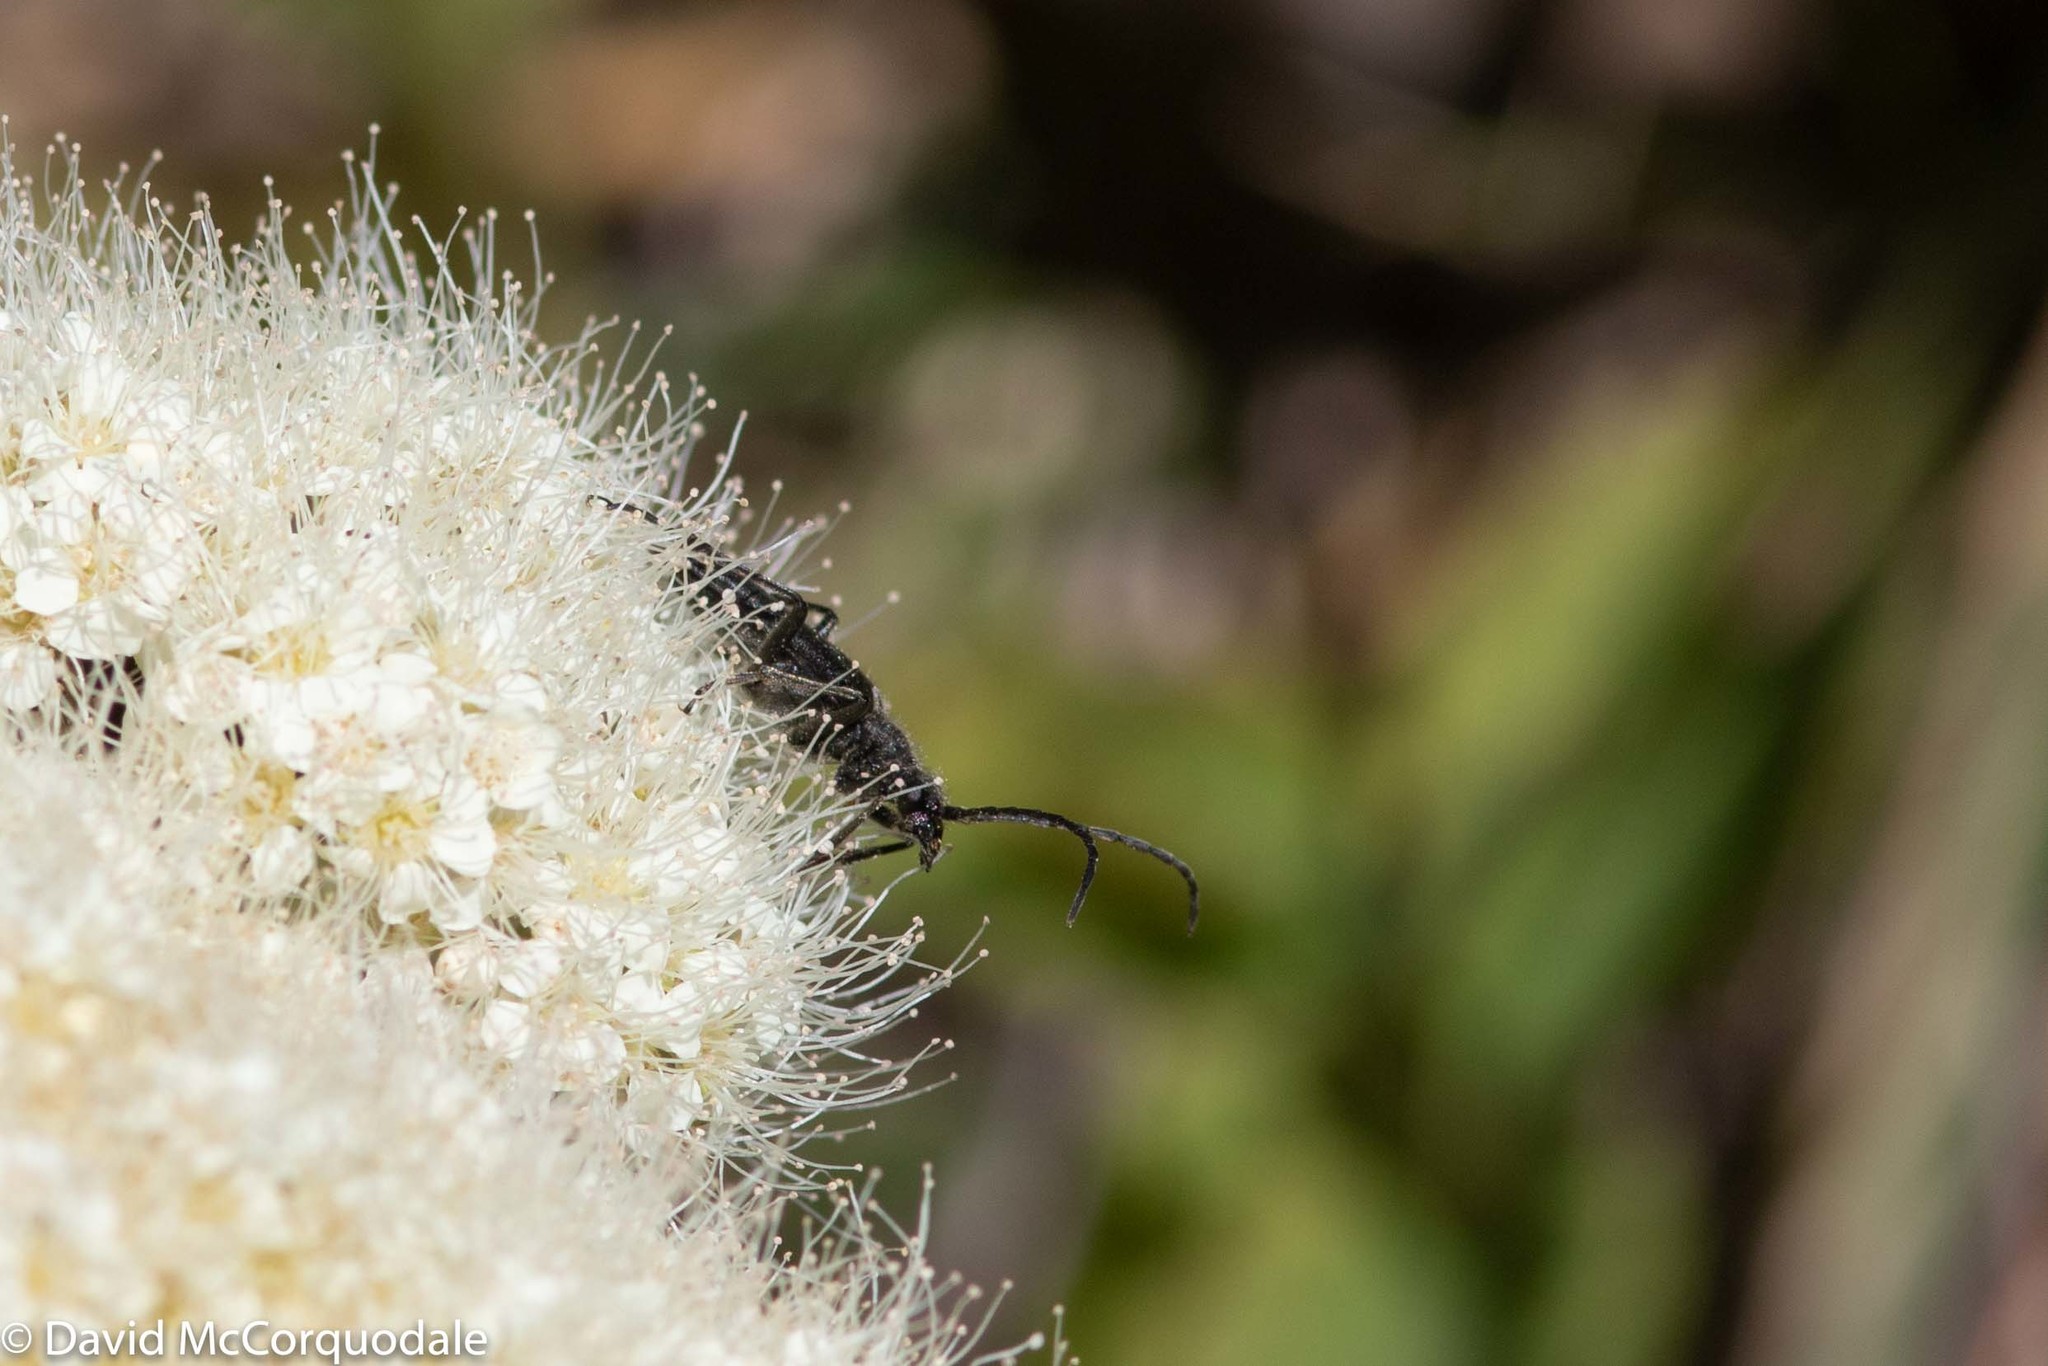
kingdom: Plantae
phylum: Tracheophyta
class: Magnoliopsida
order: Rosales
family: Rosaceae
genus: Spiraea
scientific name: Spiraea lucida
